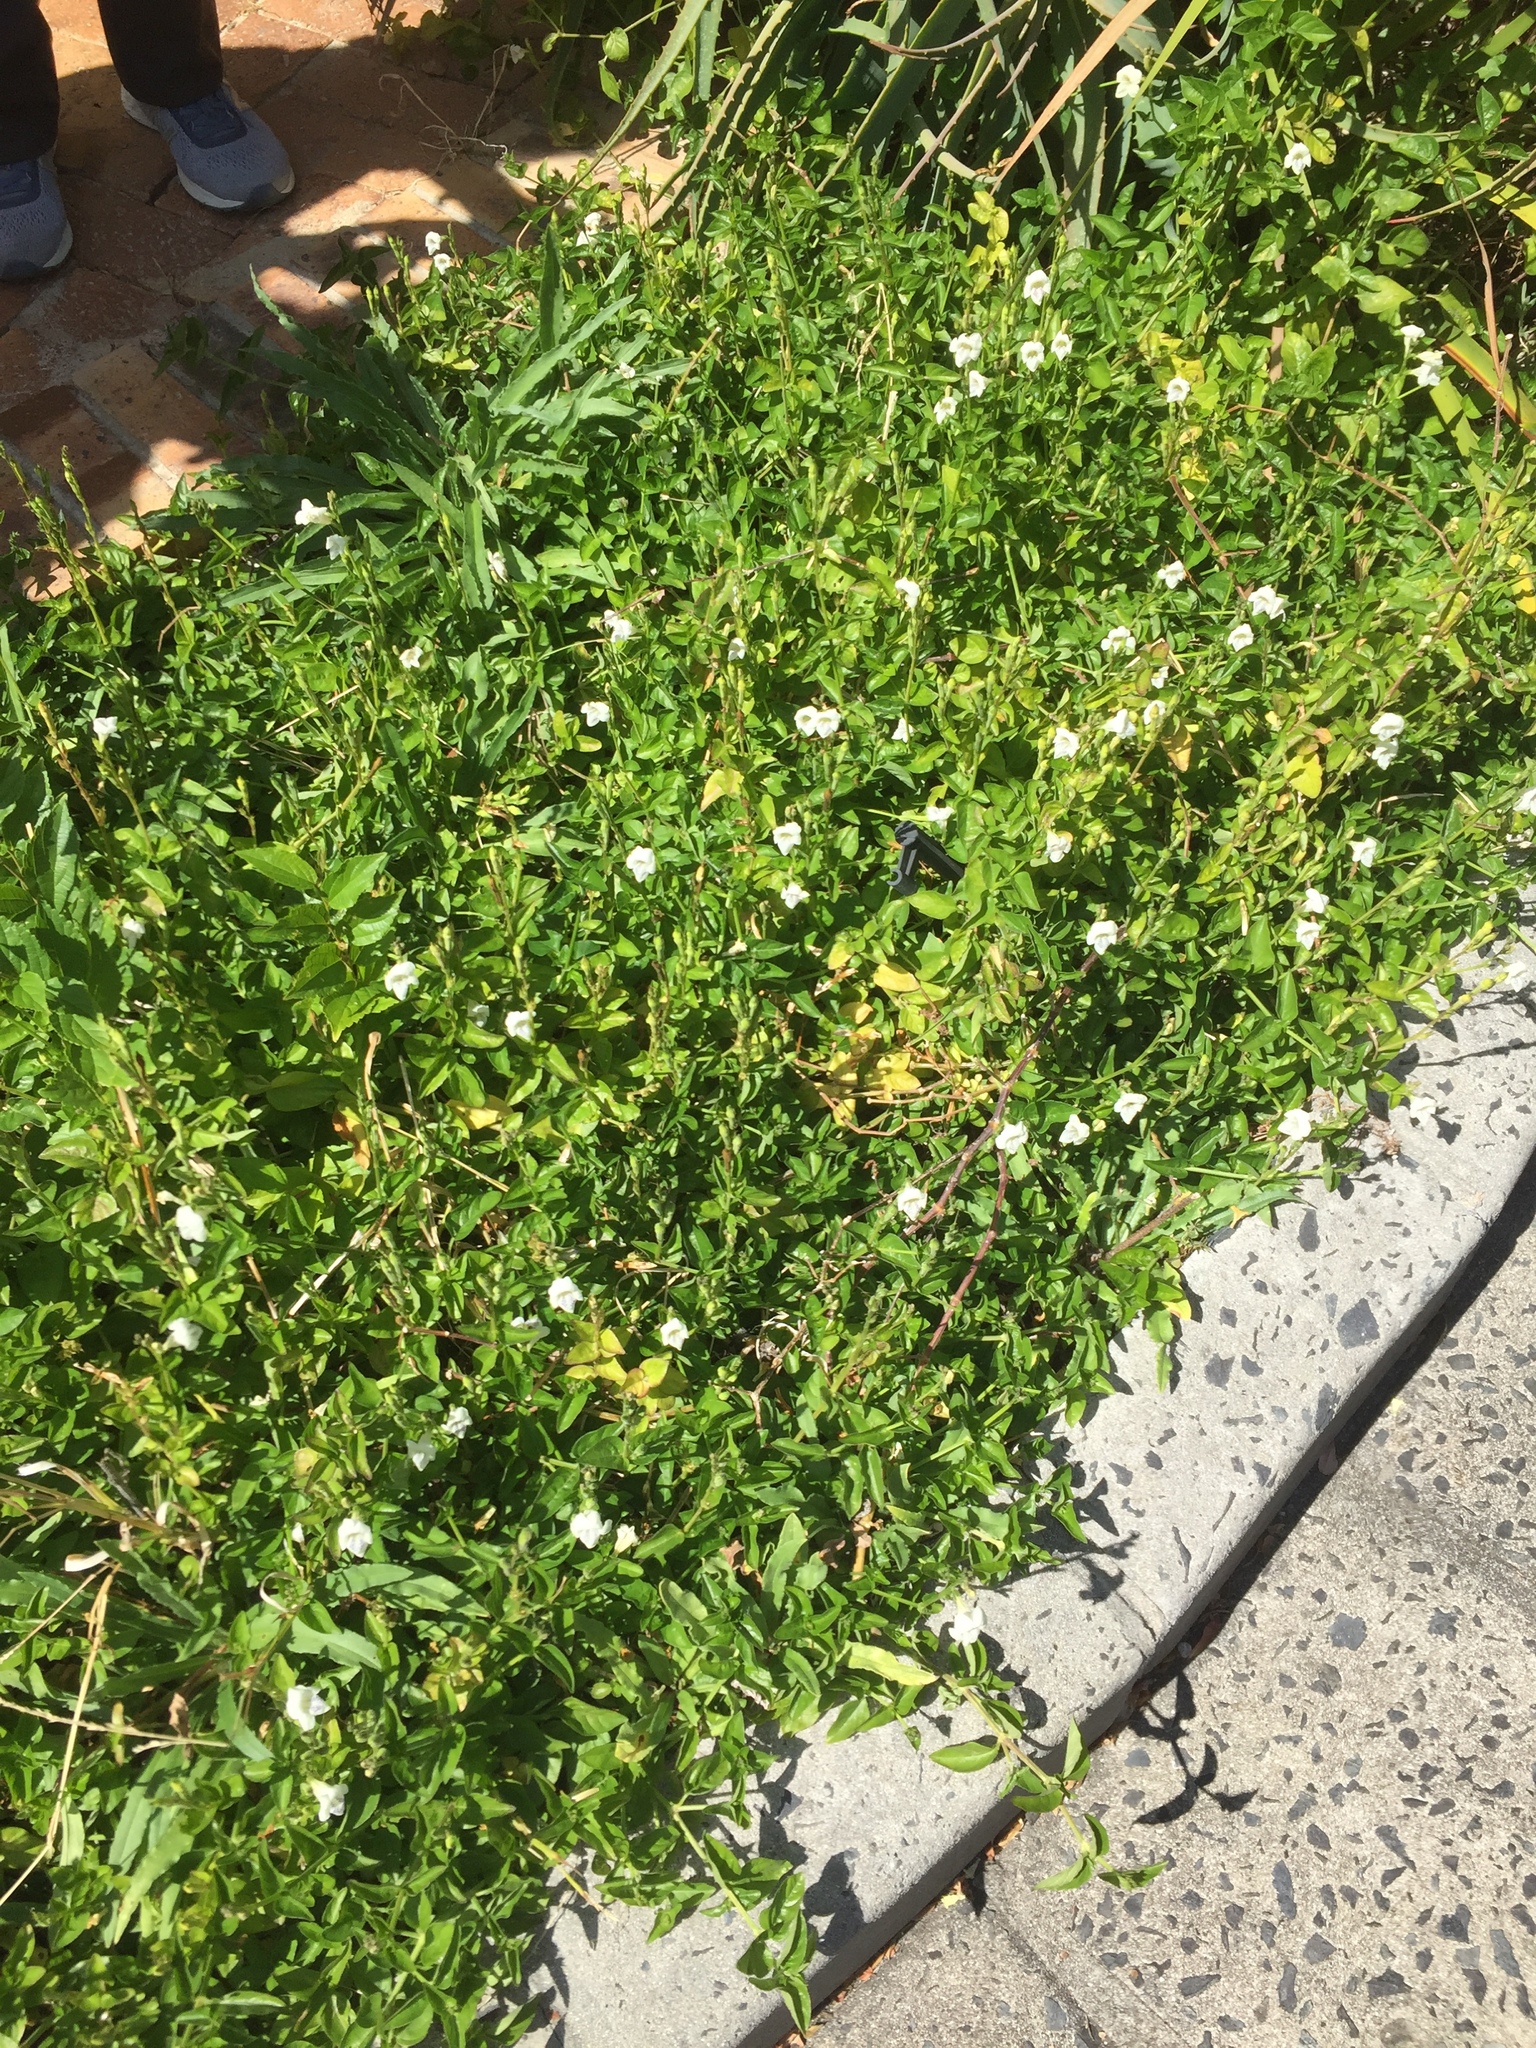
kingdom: Plantae
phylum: Tracheophyta
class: Magnoliopsida
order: Lamiales
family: Acanthaceae
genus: Asystasia
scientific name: Asystasia intrusa
